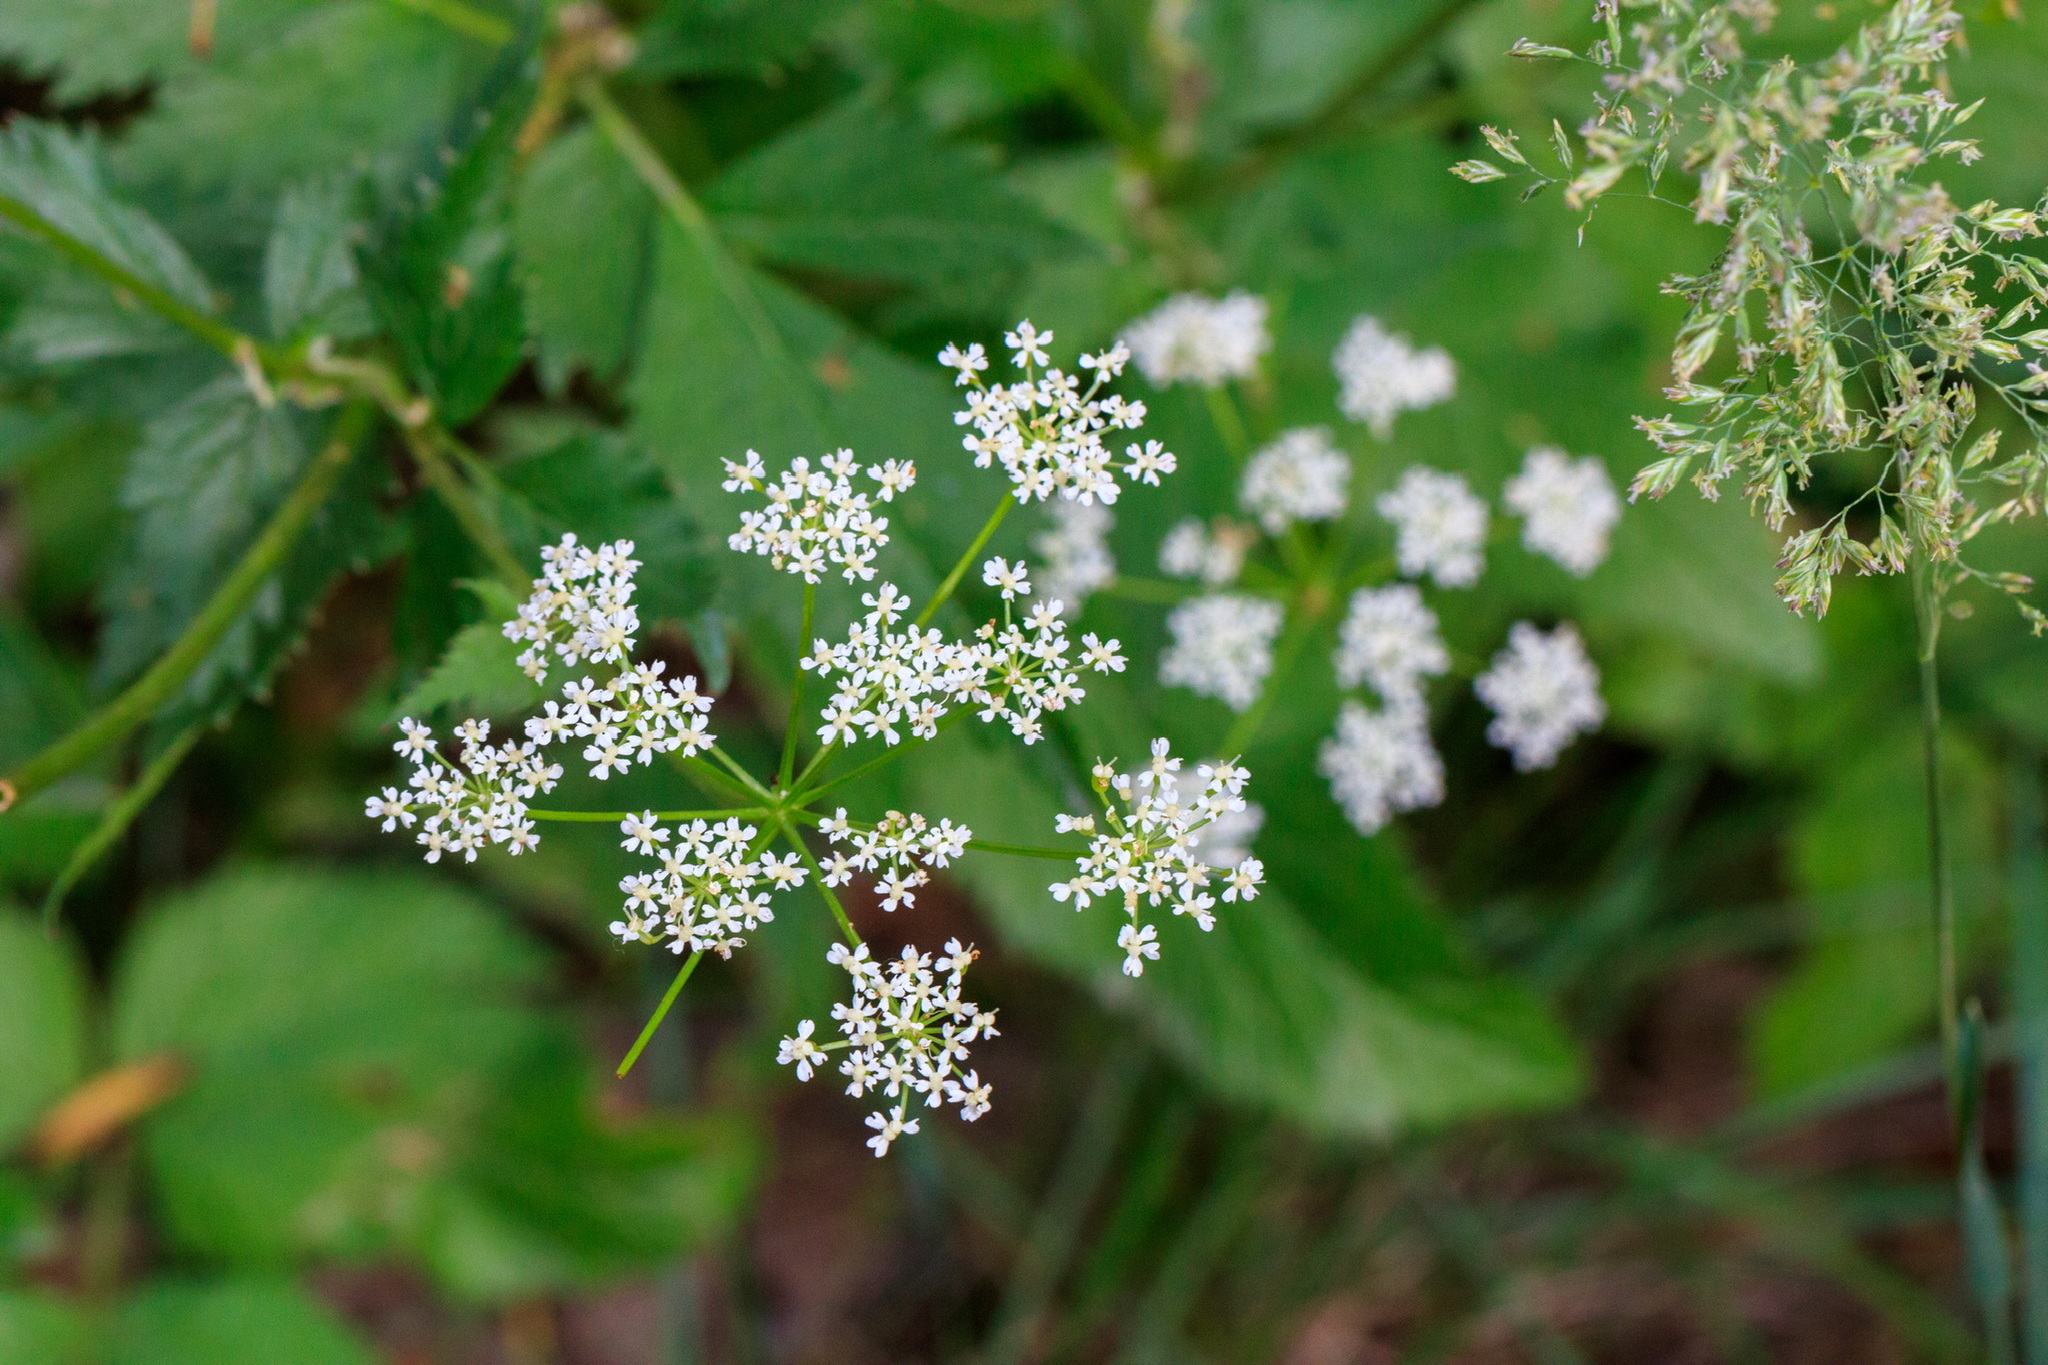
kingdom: Plantae
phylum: Tracheophyta
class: Magnoliopsida
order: Apiales
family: Apiaceae
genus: Aegopodium
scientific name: Aegopodium alpestre
